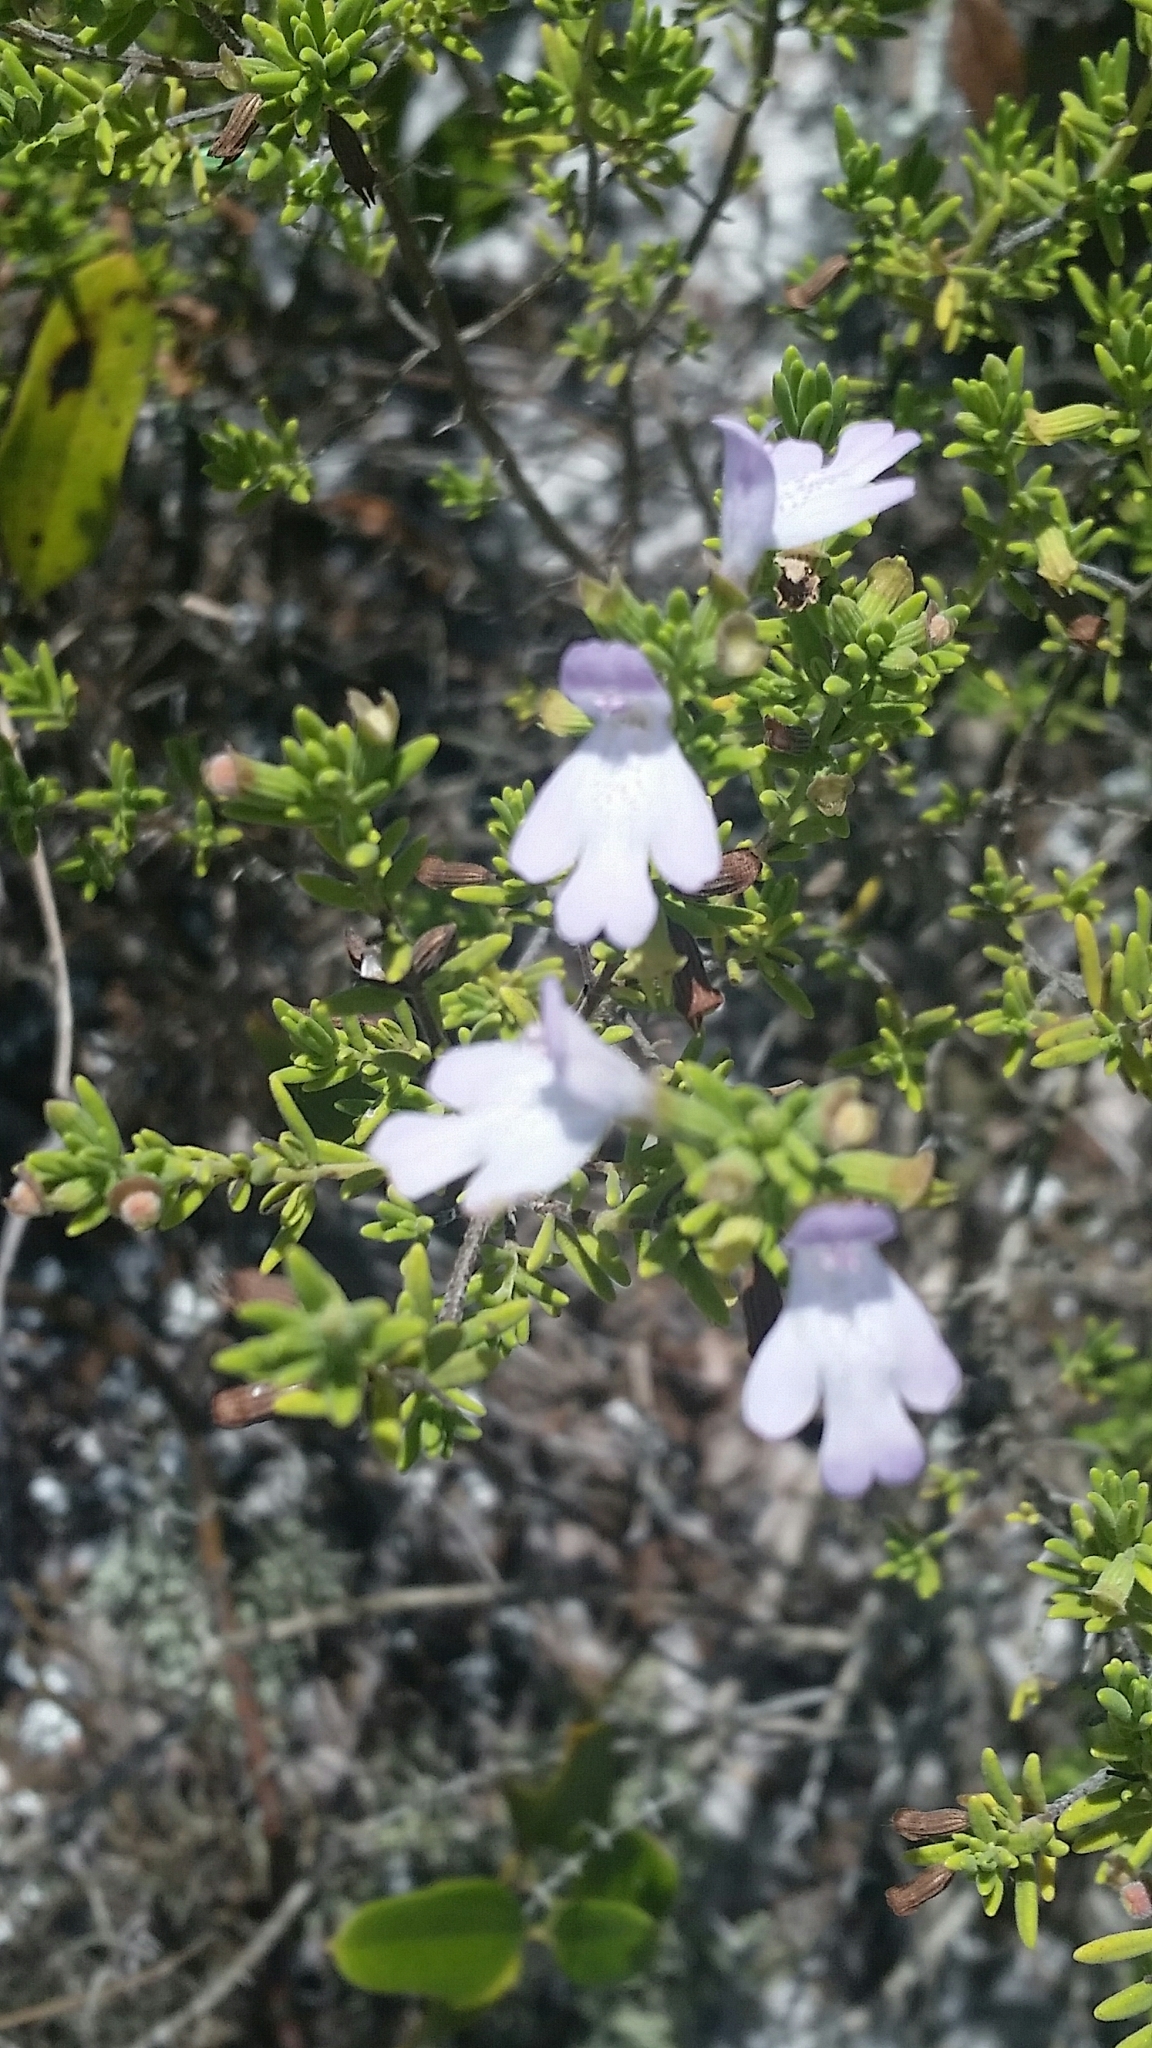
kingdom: Plantae
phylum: Tracheophyta
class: Magnoliopsida
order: Lamiales
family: Lamiaceae
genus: Clinopodium
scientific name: Clinopodium ashei
